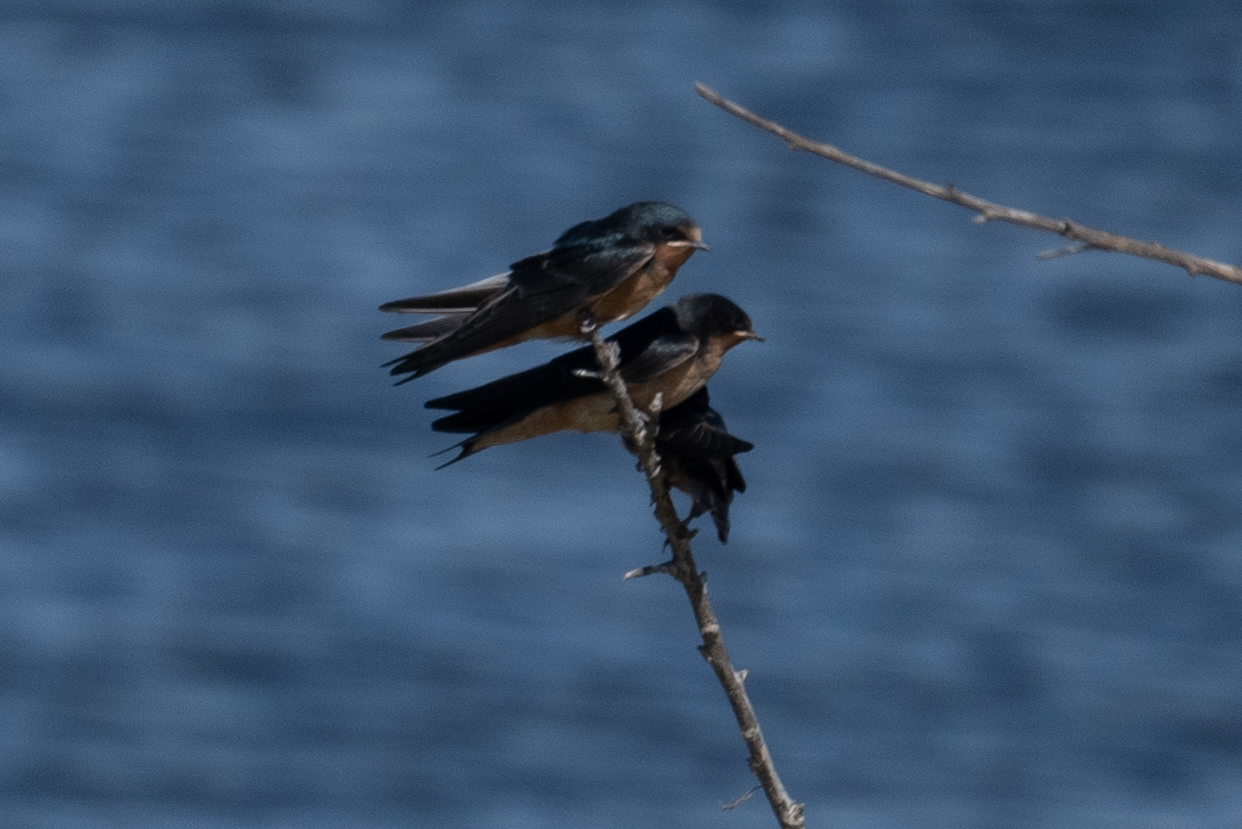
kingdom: Animalia
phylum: Chordata
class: Aves
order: Passeriformes
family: Hirundinidae
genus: Hirundo
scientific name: Hirundo rustica
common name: Barn swallow
